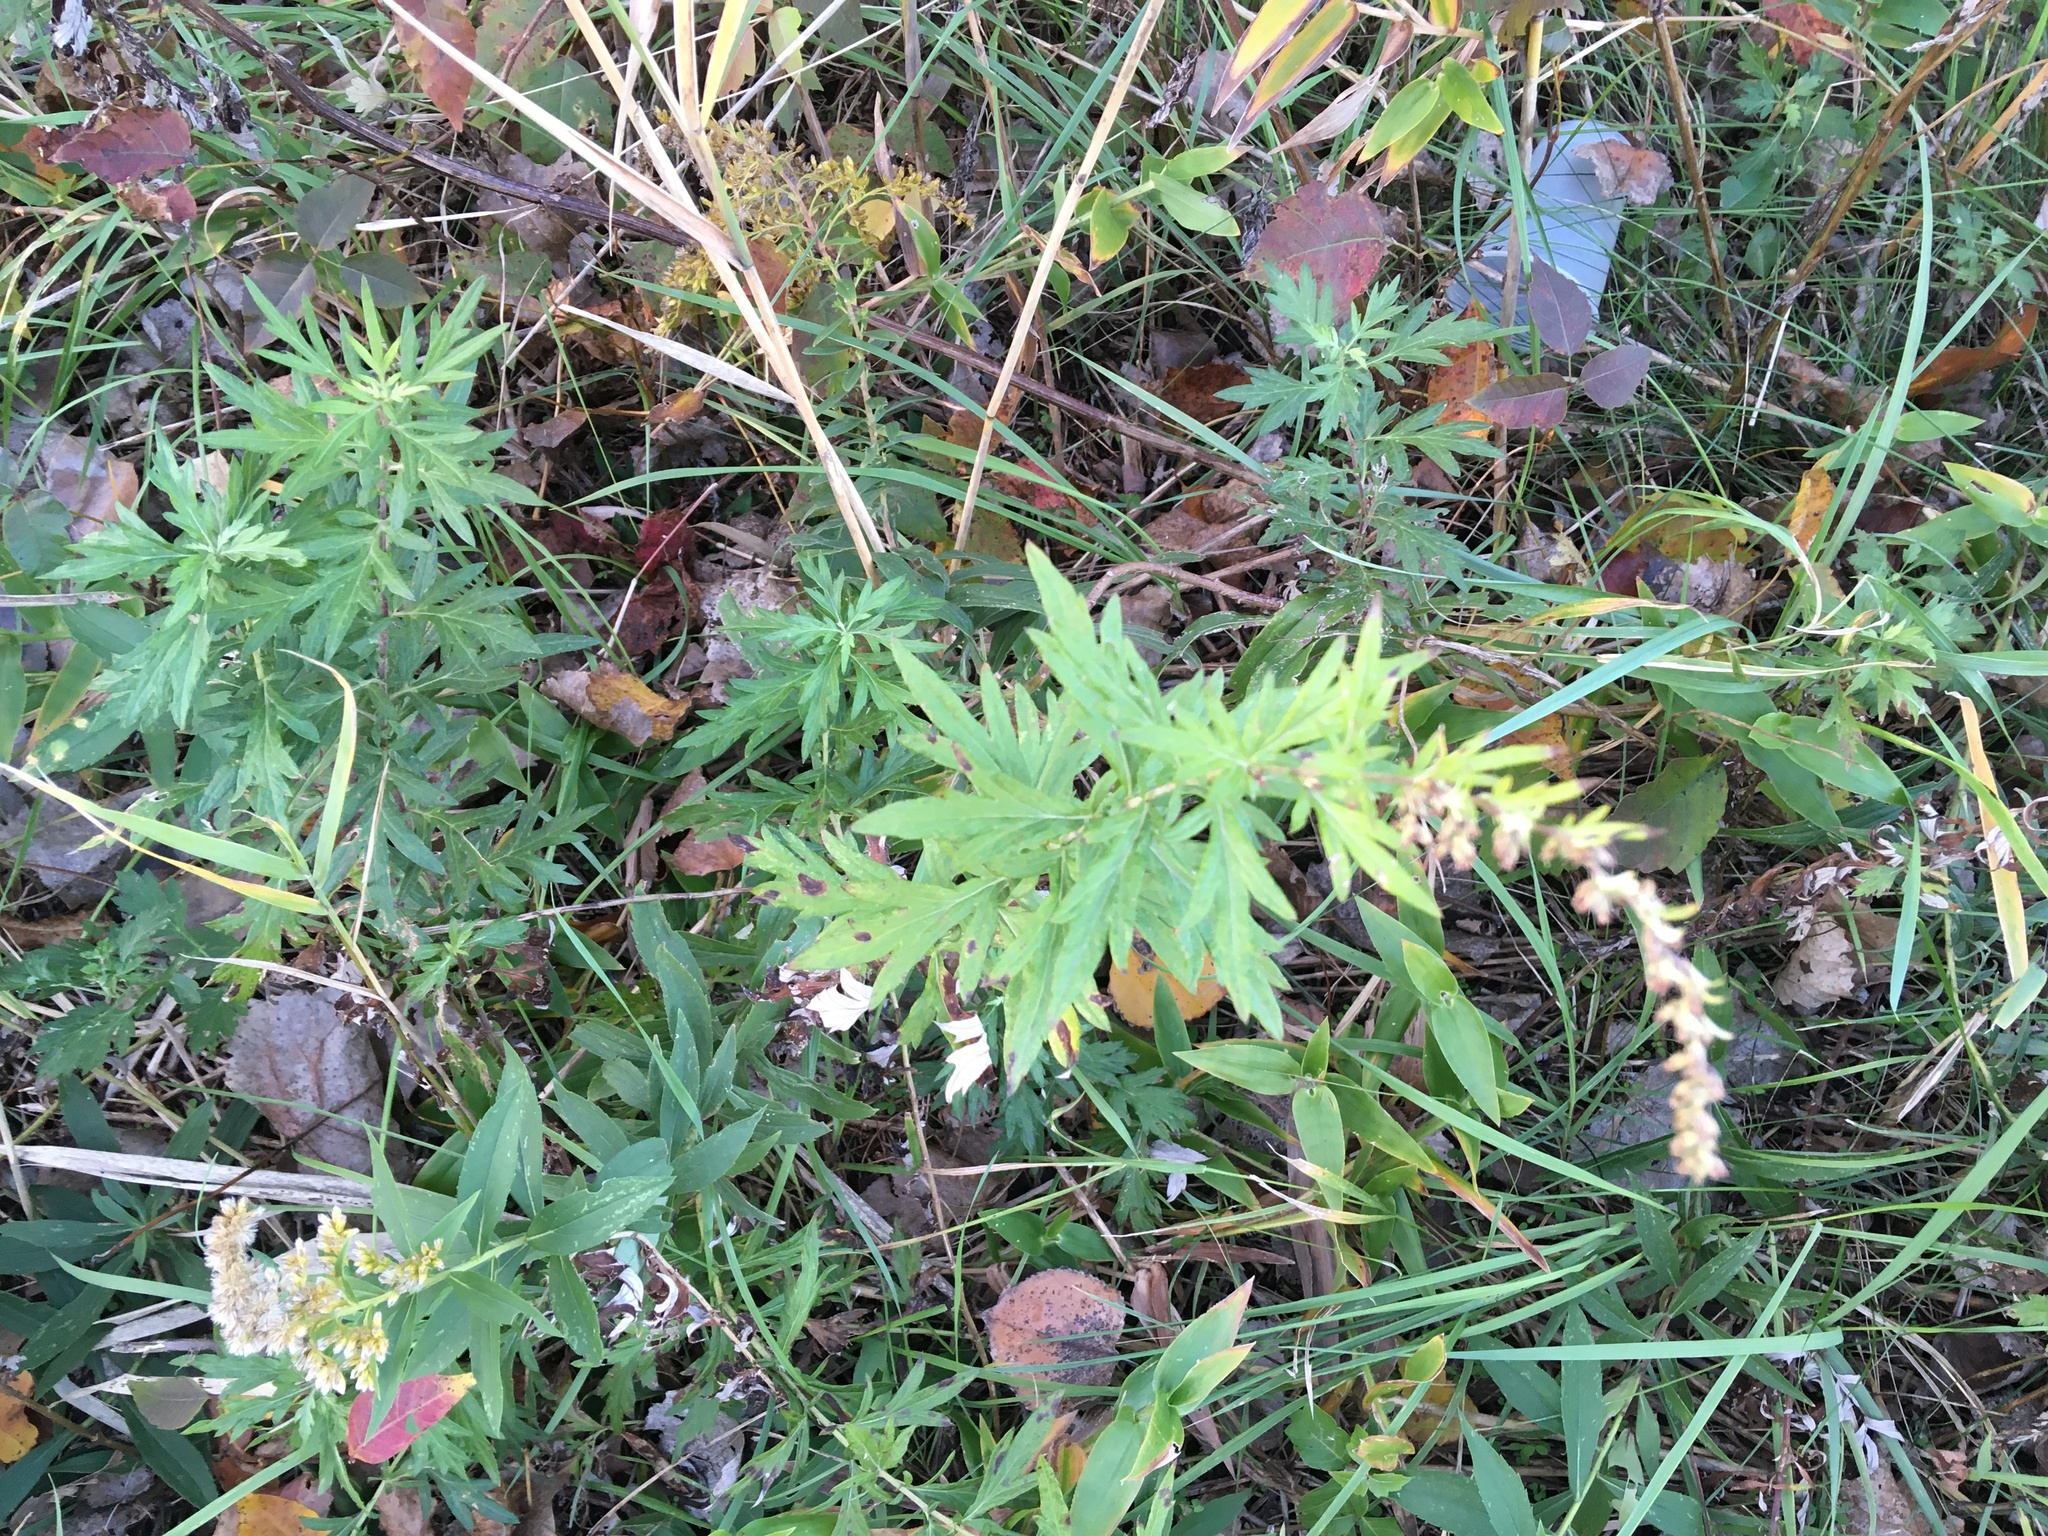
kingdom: Plantae
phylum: Tracheophyta
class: Magnoliopsida
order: Asterales
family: Asteraceae
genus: Artemisia
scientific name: Artemisia vulgaris
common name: Mugwort
